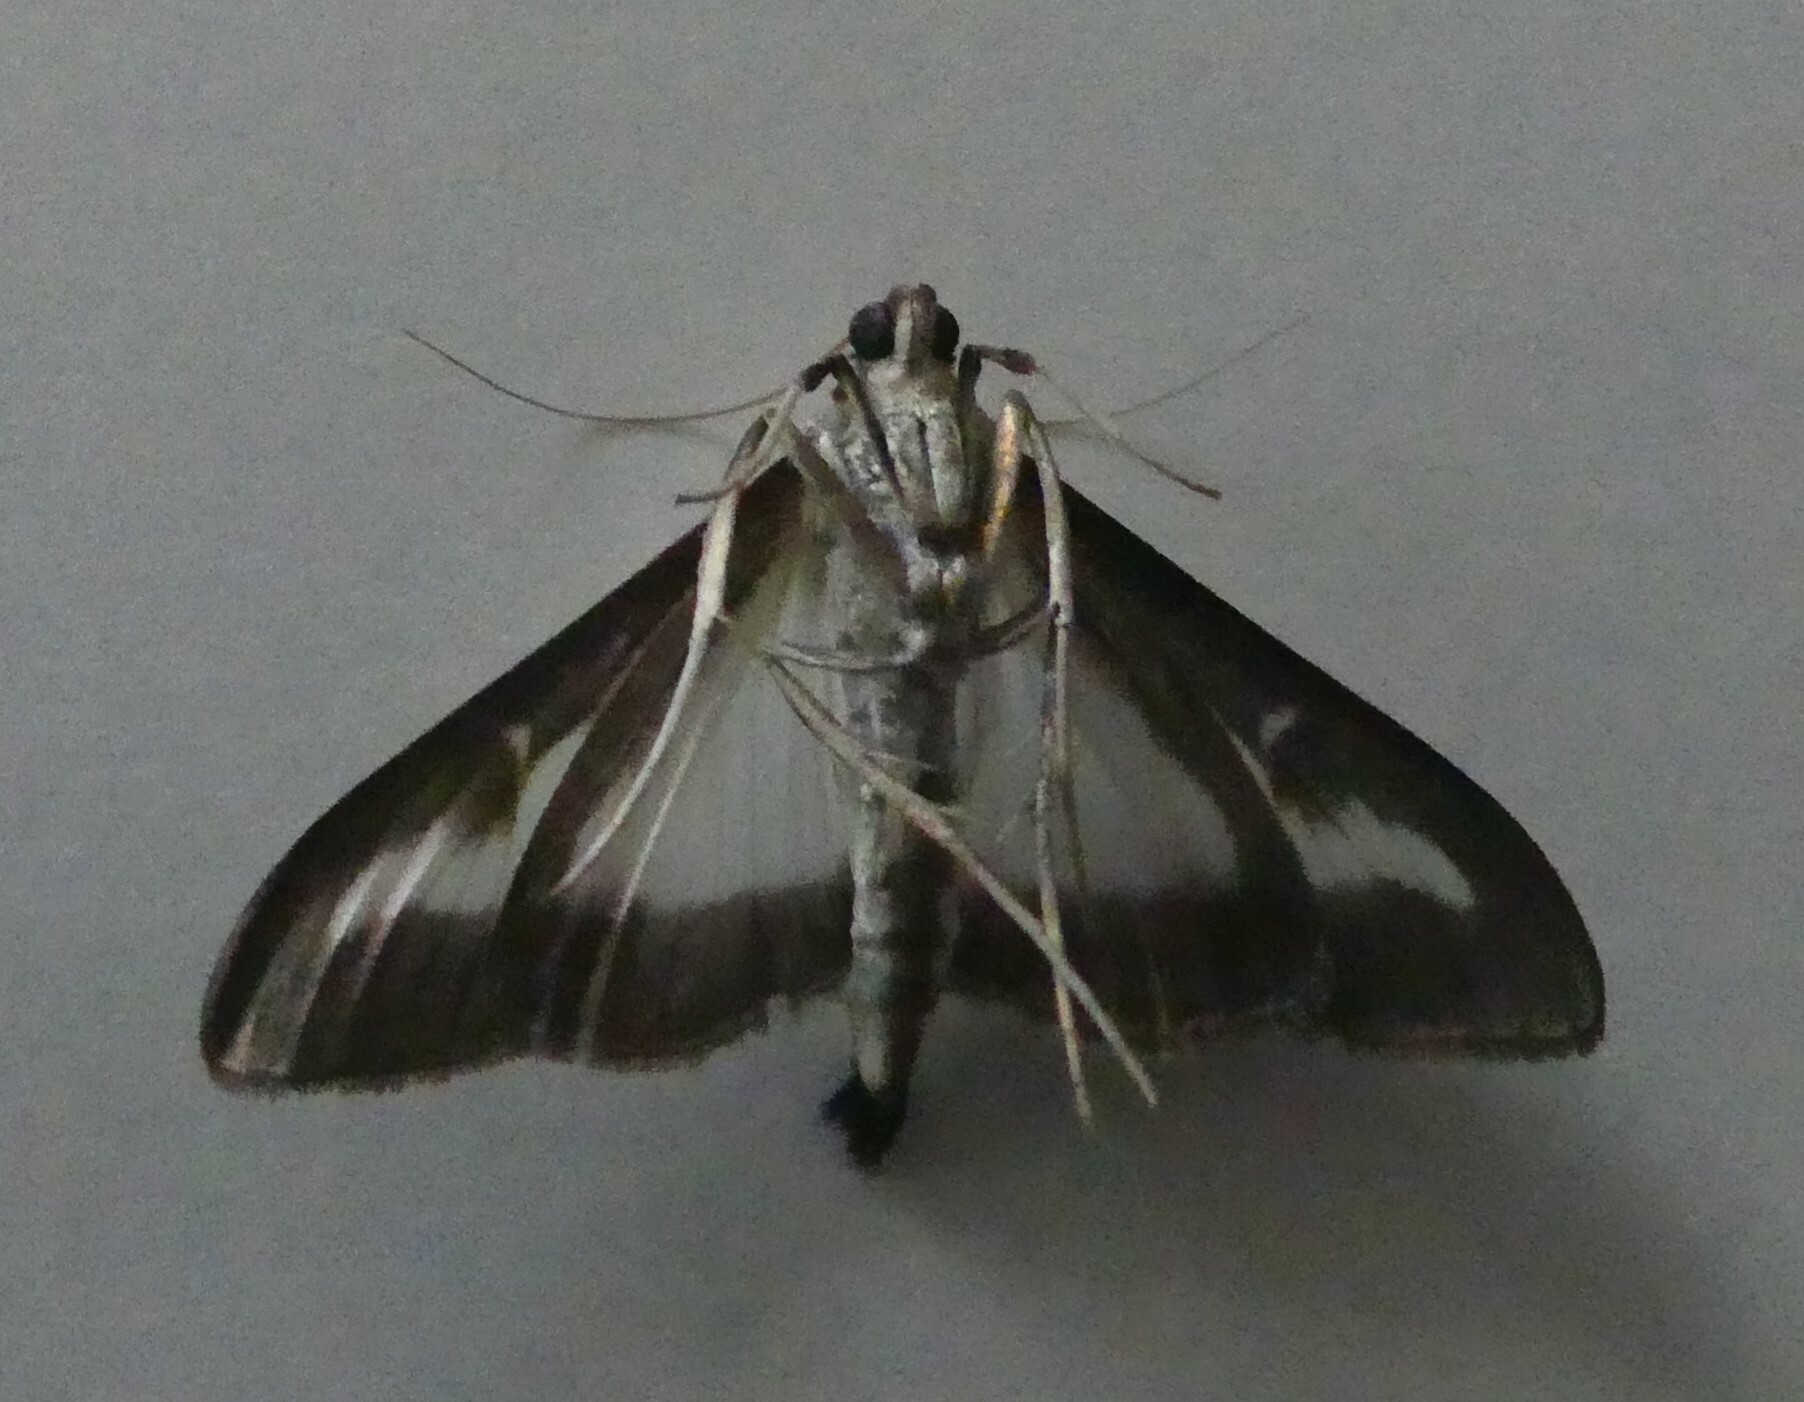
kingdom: Animalia
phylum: Arthropoda
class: Insecta
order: Lepidoptera
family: Crambidae
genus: Cydalima
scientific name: Cydalima perspectalis
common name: Box tree moth
